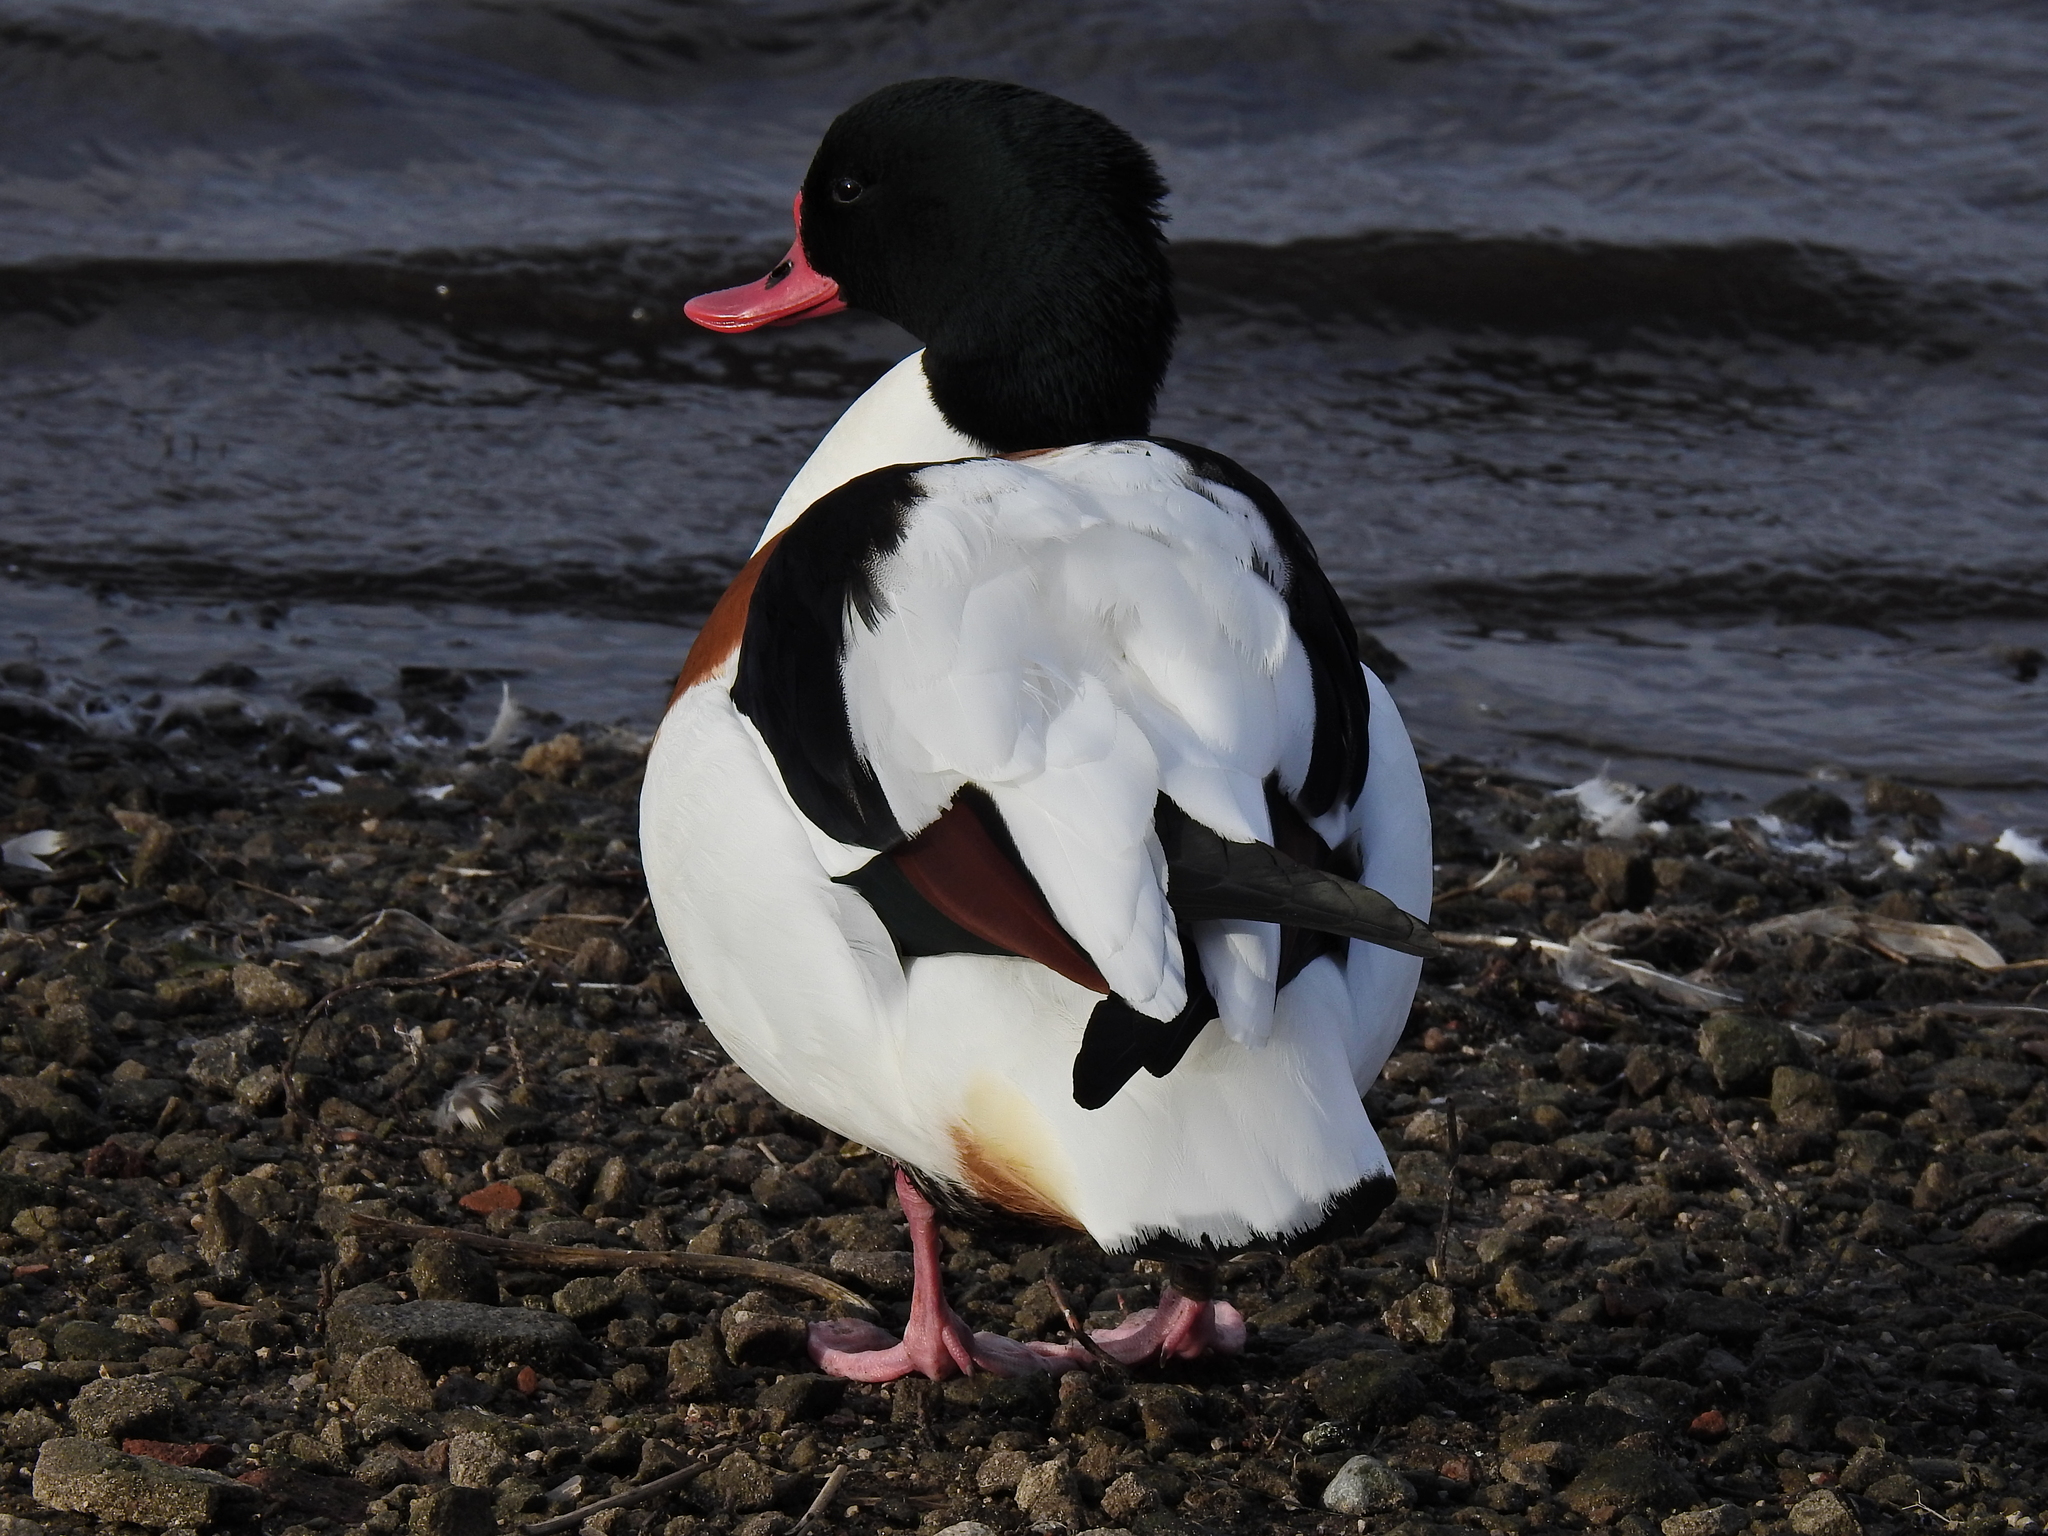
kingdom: Animalia
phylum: Chordata
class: Aves
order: Anseriformes
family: Anatidae
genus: Tadorna
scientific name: Tadorna tadorna
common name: Common shelduck
